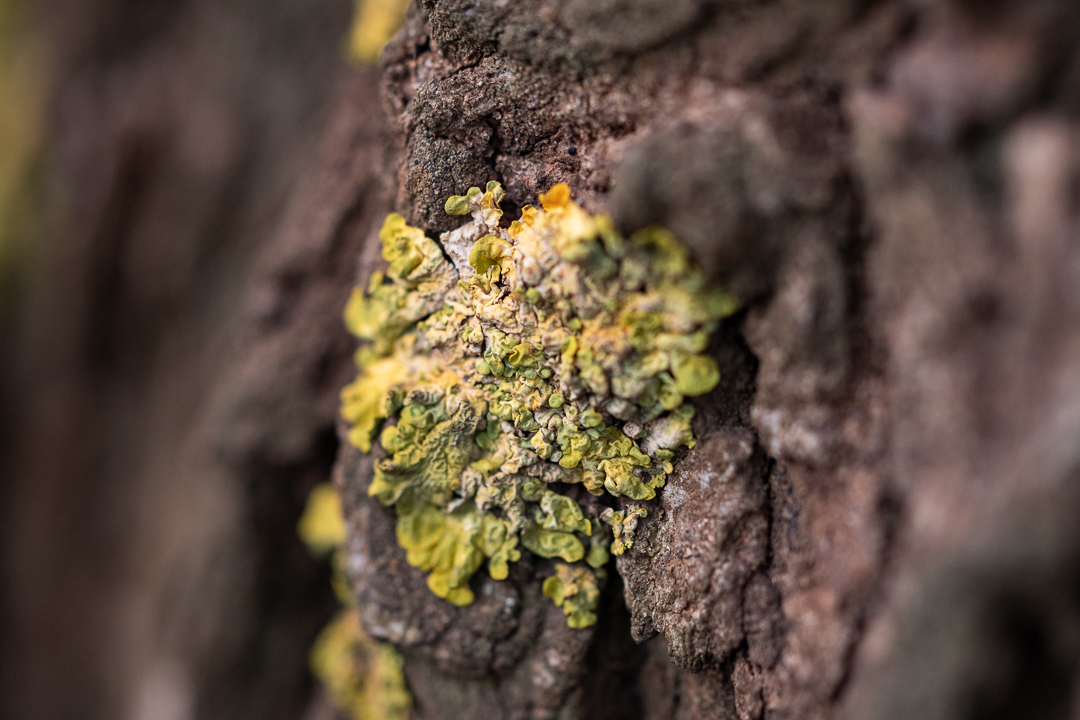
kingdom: Fungi
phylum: Ascomycota
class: Lecanoromycetes
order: Teloschistales
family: Teloschistaceae
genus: Xanthoria
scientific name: Xanthoria parietina
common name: Common orange lichen
